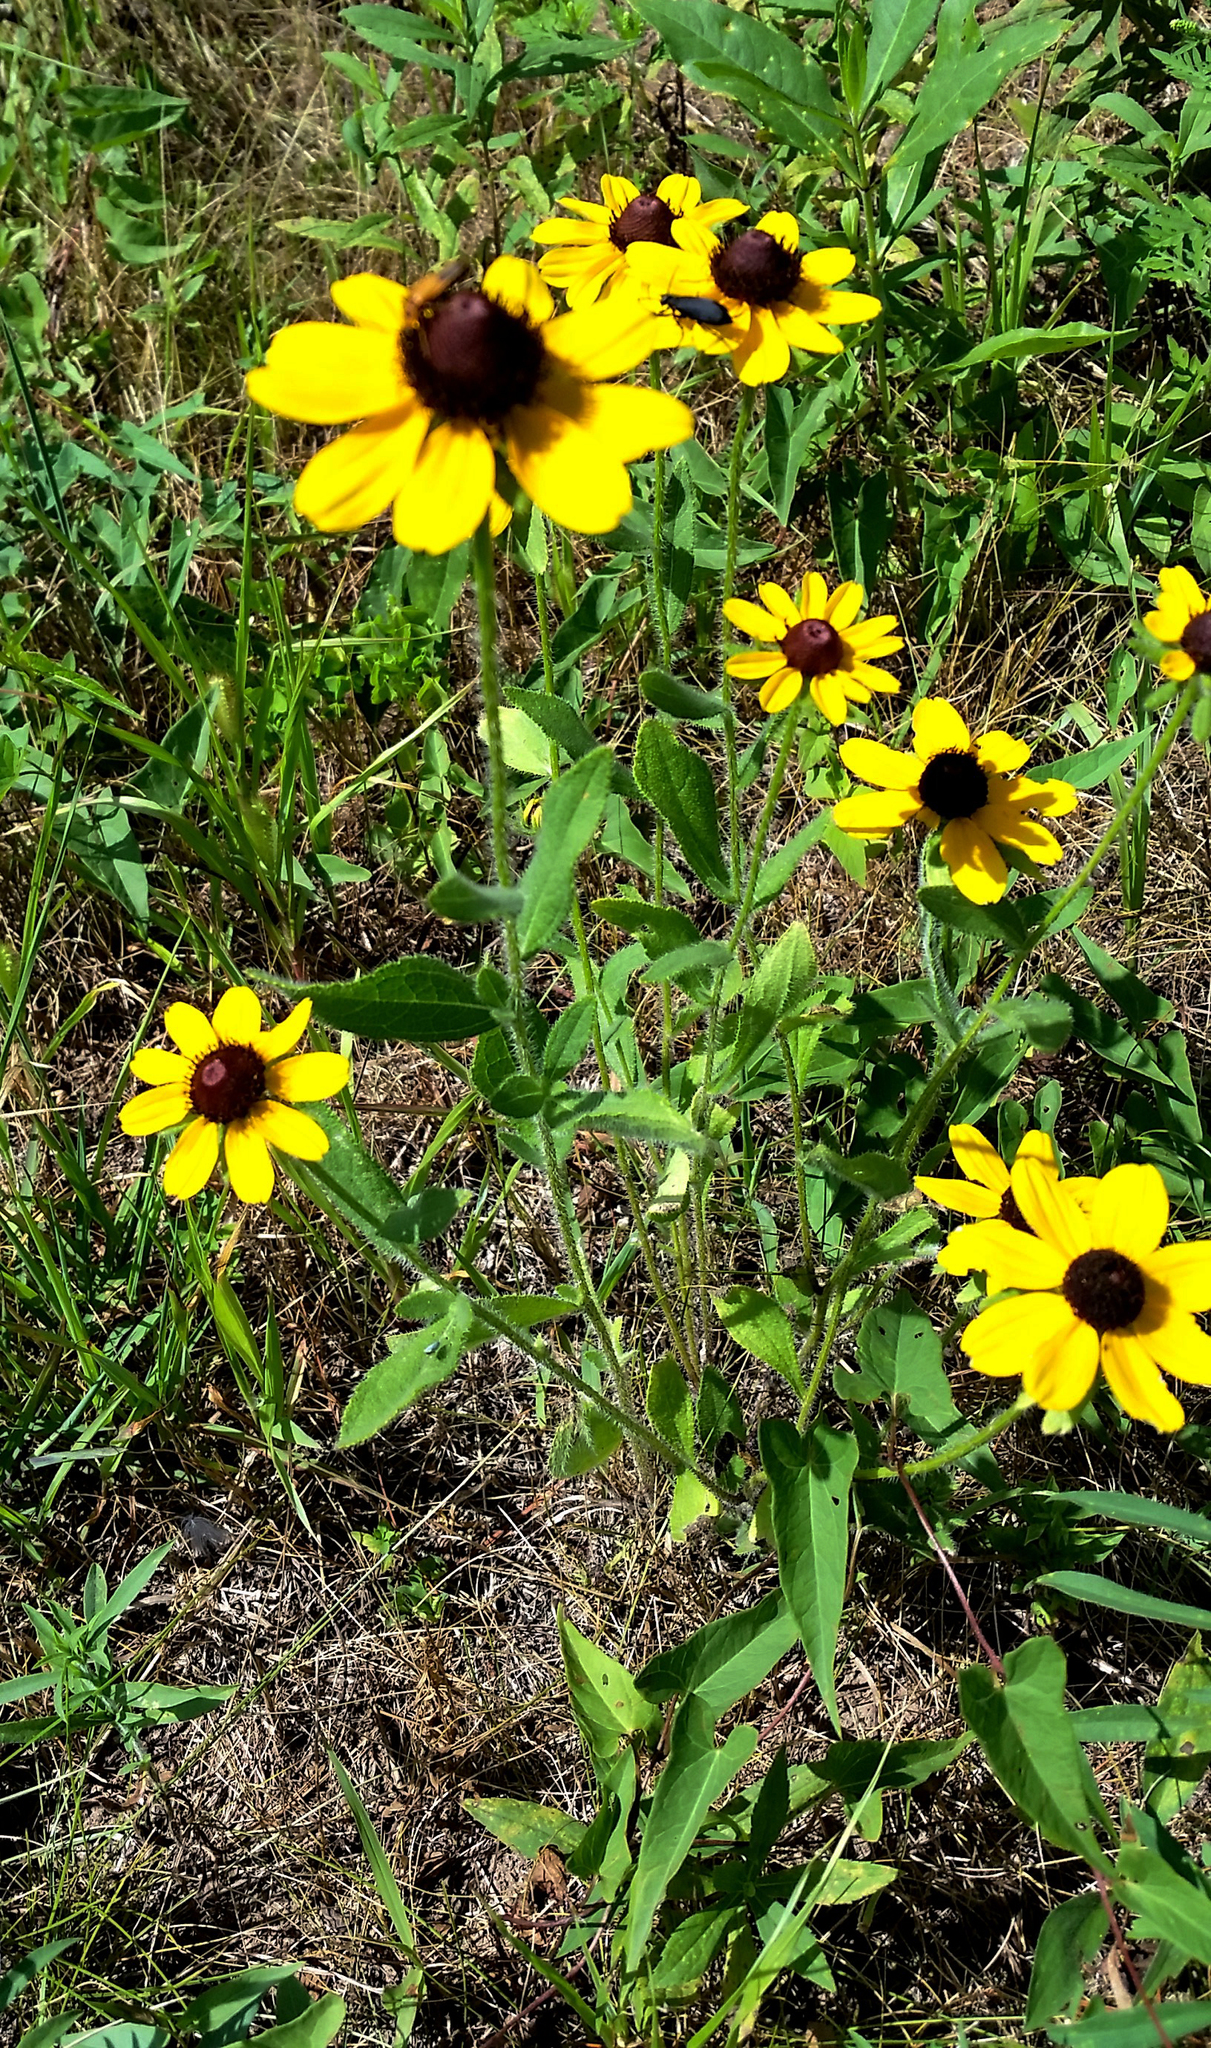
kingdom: Plantae
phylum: Tracheophyta
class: Magnoliopsida
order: Asterales
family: Asteraceae
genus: Rudbeckia
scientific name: Rudbeckia hirta
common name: Black-eyed-susan
